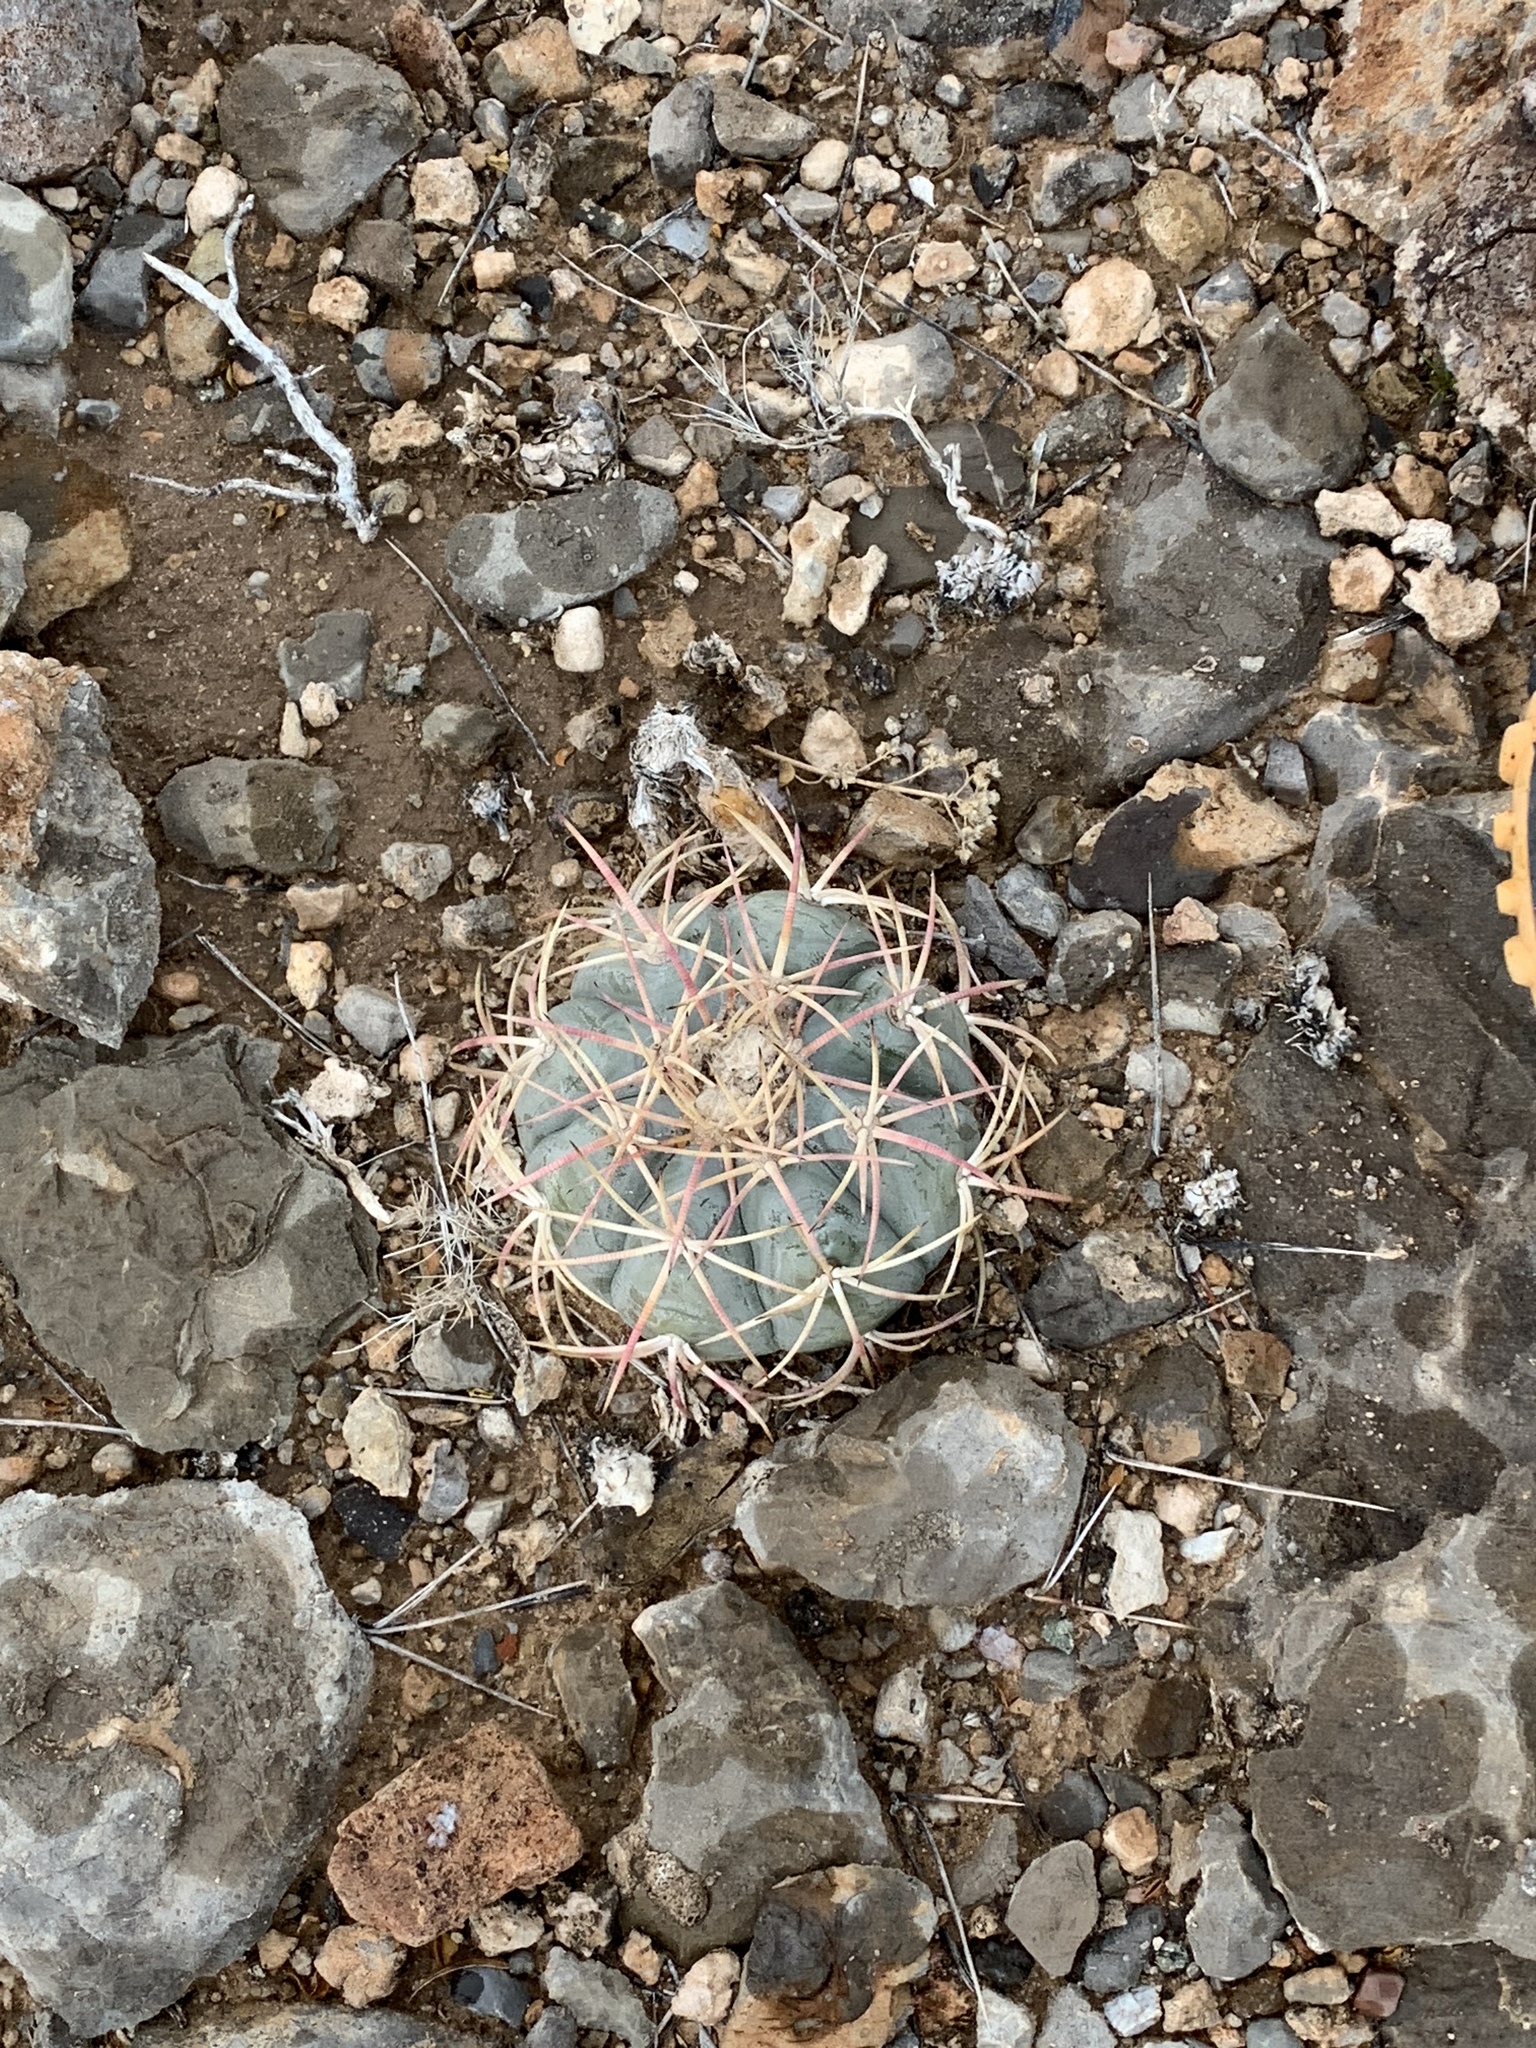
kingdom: Plantae
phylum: Tracheophyta
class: Magnoliopsida
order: Caryophyllales
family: Cactaceae
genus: Echinocactus
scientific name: Echinocactus horizonthalonius
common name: Devilshead
